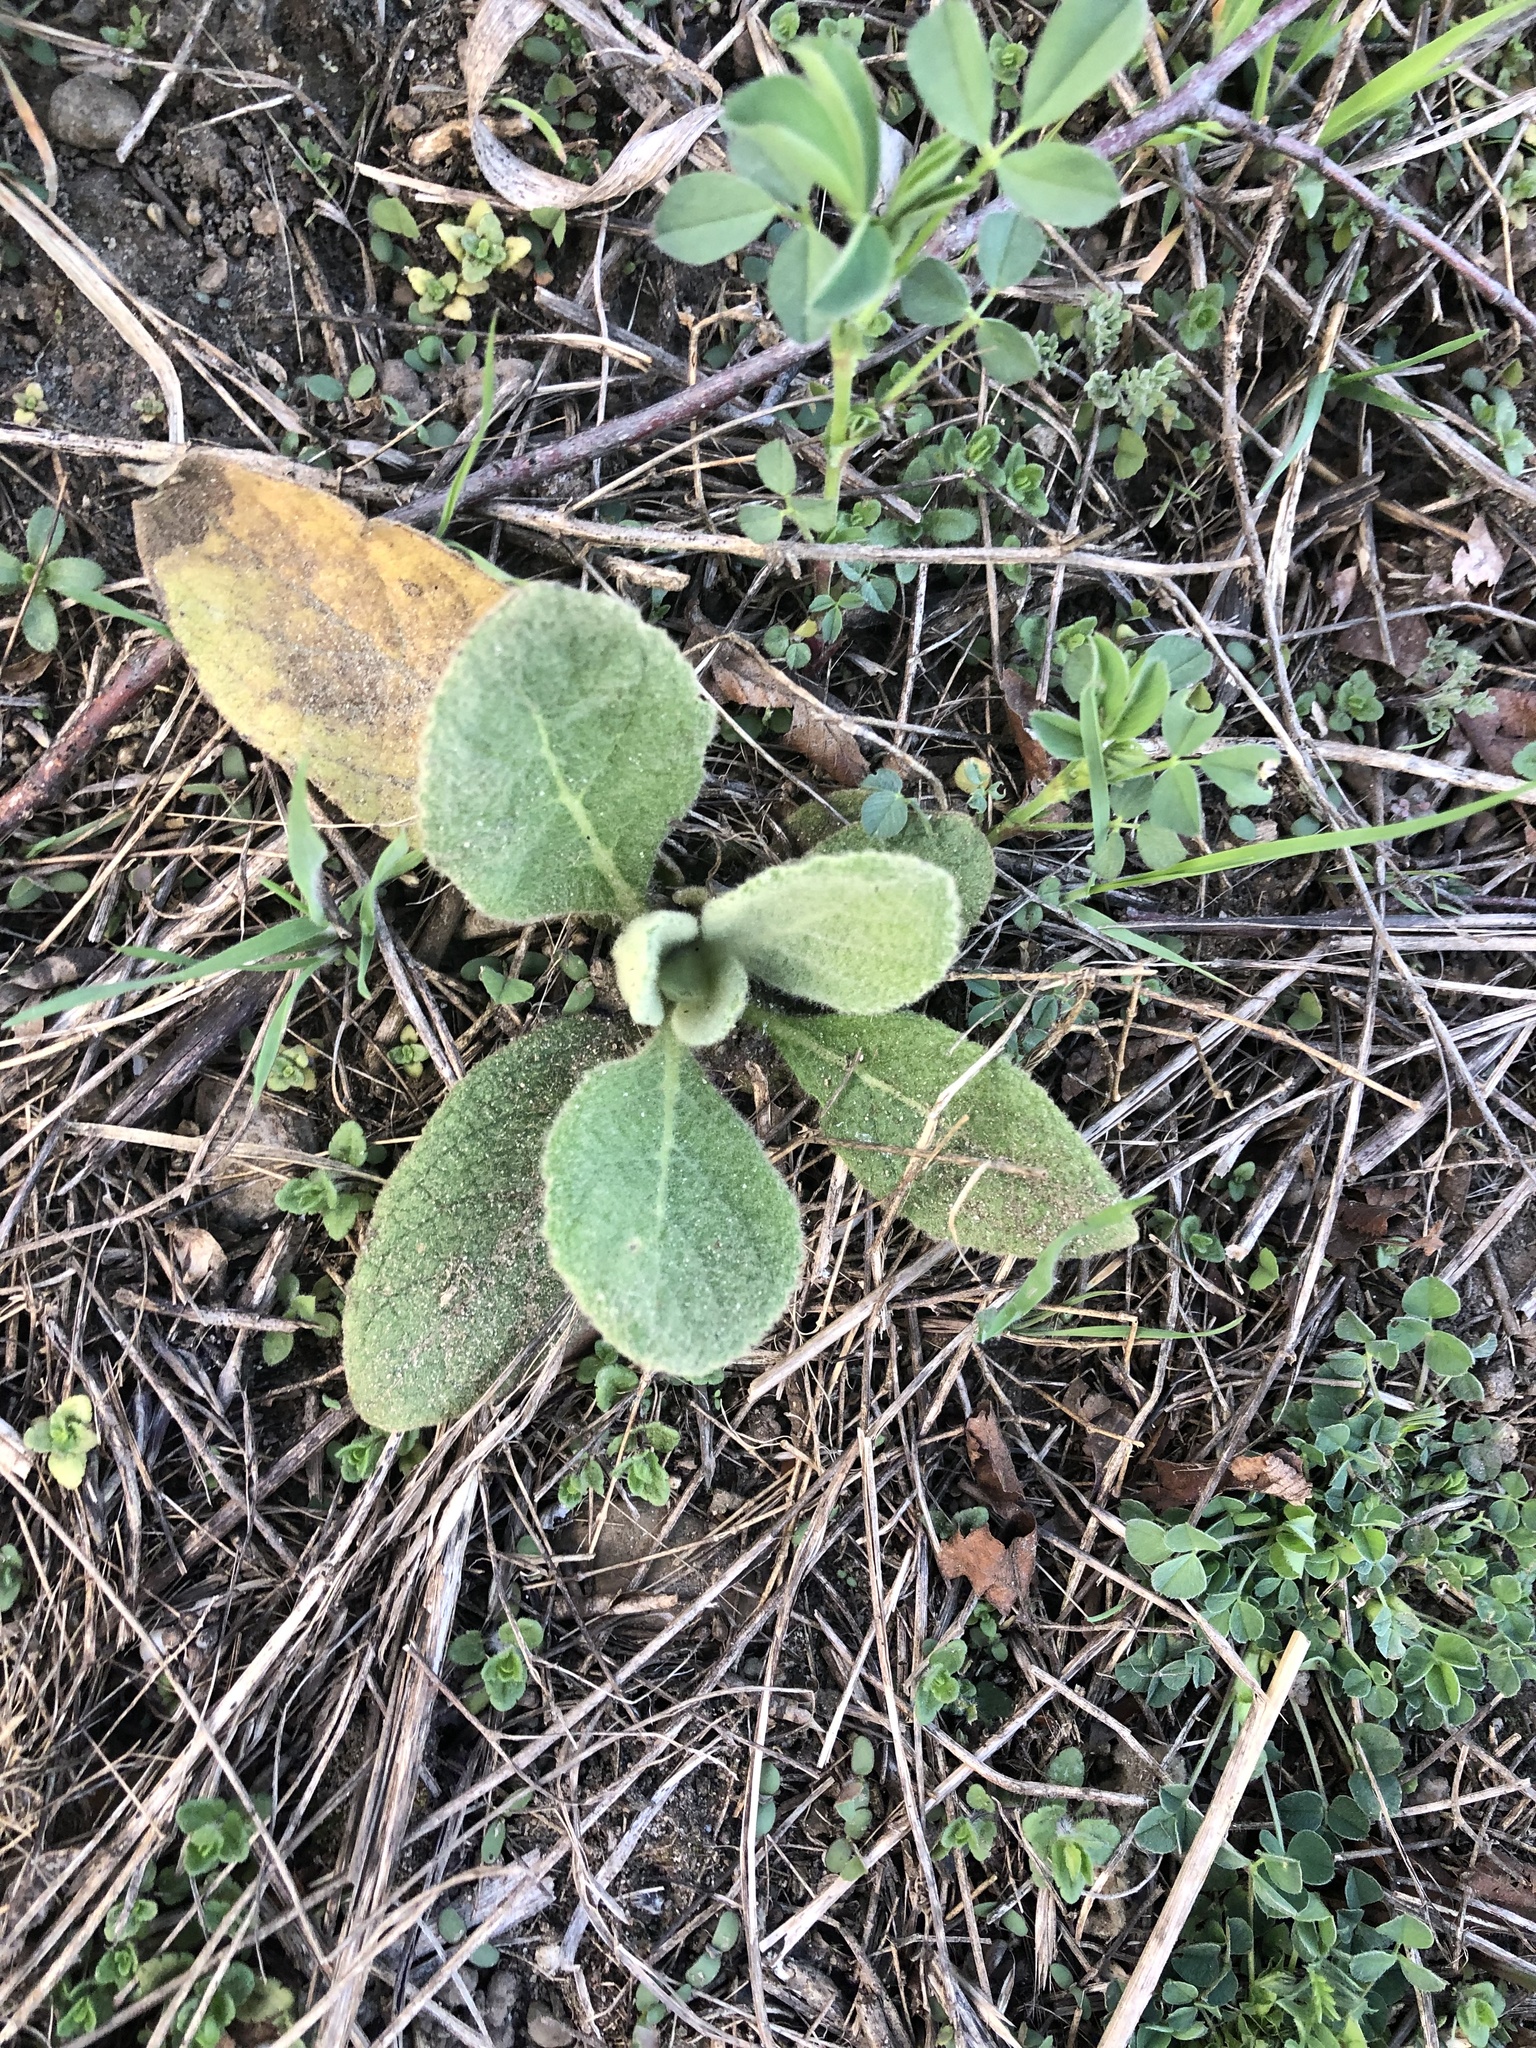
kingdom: Plantae
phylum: Tracheophyta
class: Magnoliopsida
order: Lamiales
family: Scrophulariaceae
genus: Verbascum
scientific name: Verbascum thapsus
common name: Common mullein
